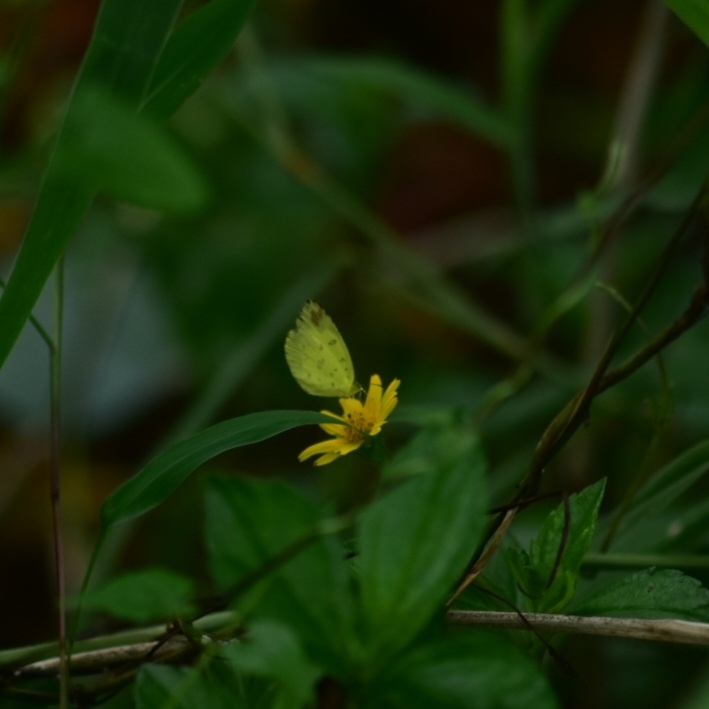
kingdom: Animalia
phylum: Arthropoda
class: Insecta
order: Lepidoptera
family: Pieridae
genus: Eurema
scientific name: Eurema blanda
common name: Three-spot grass yellow
